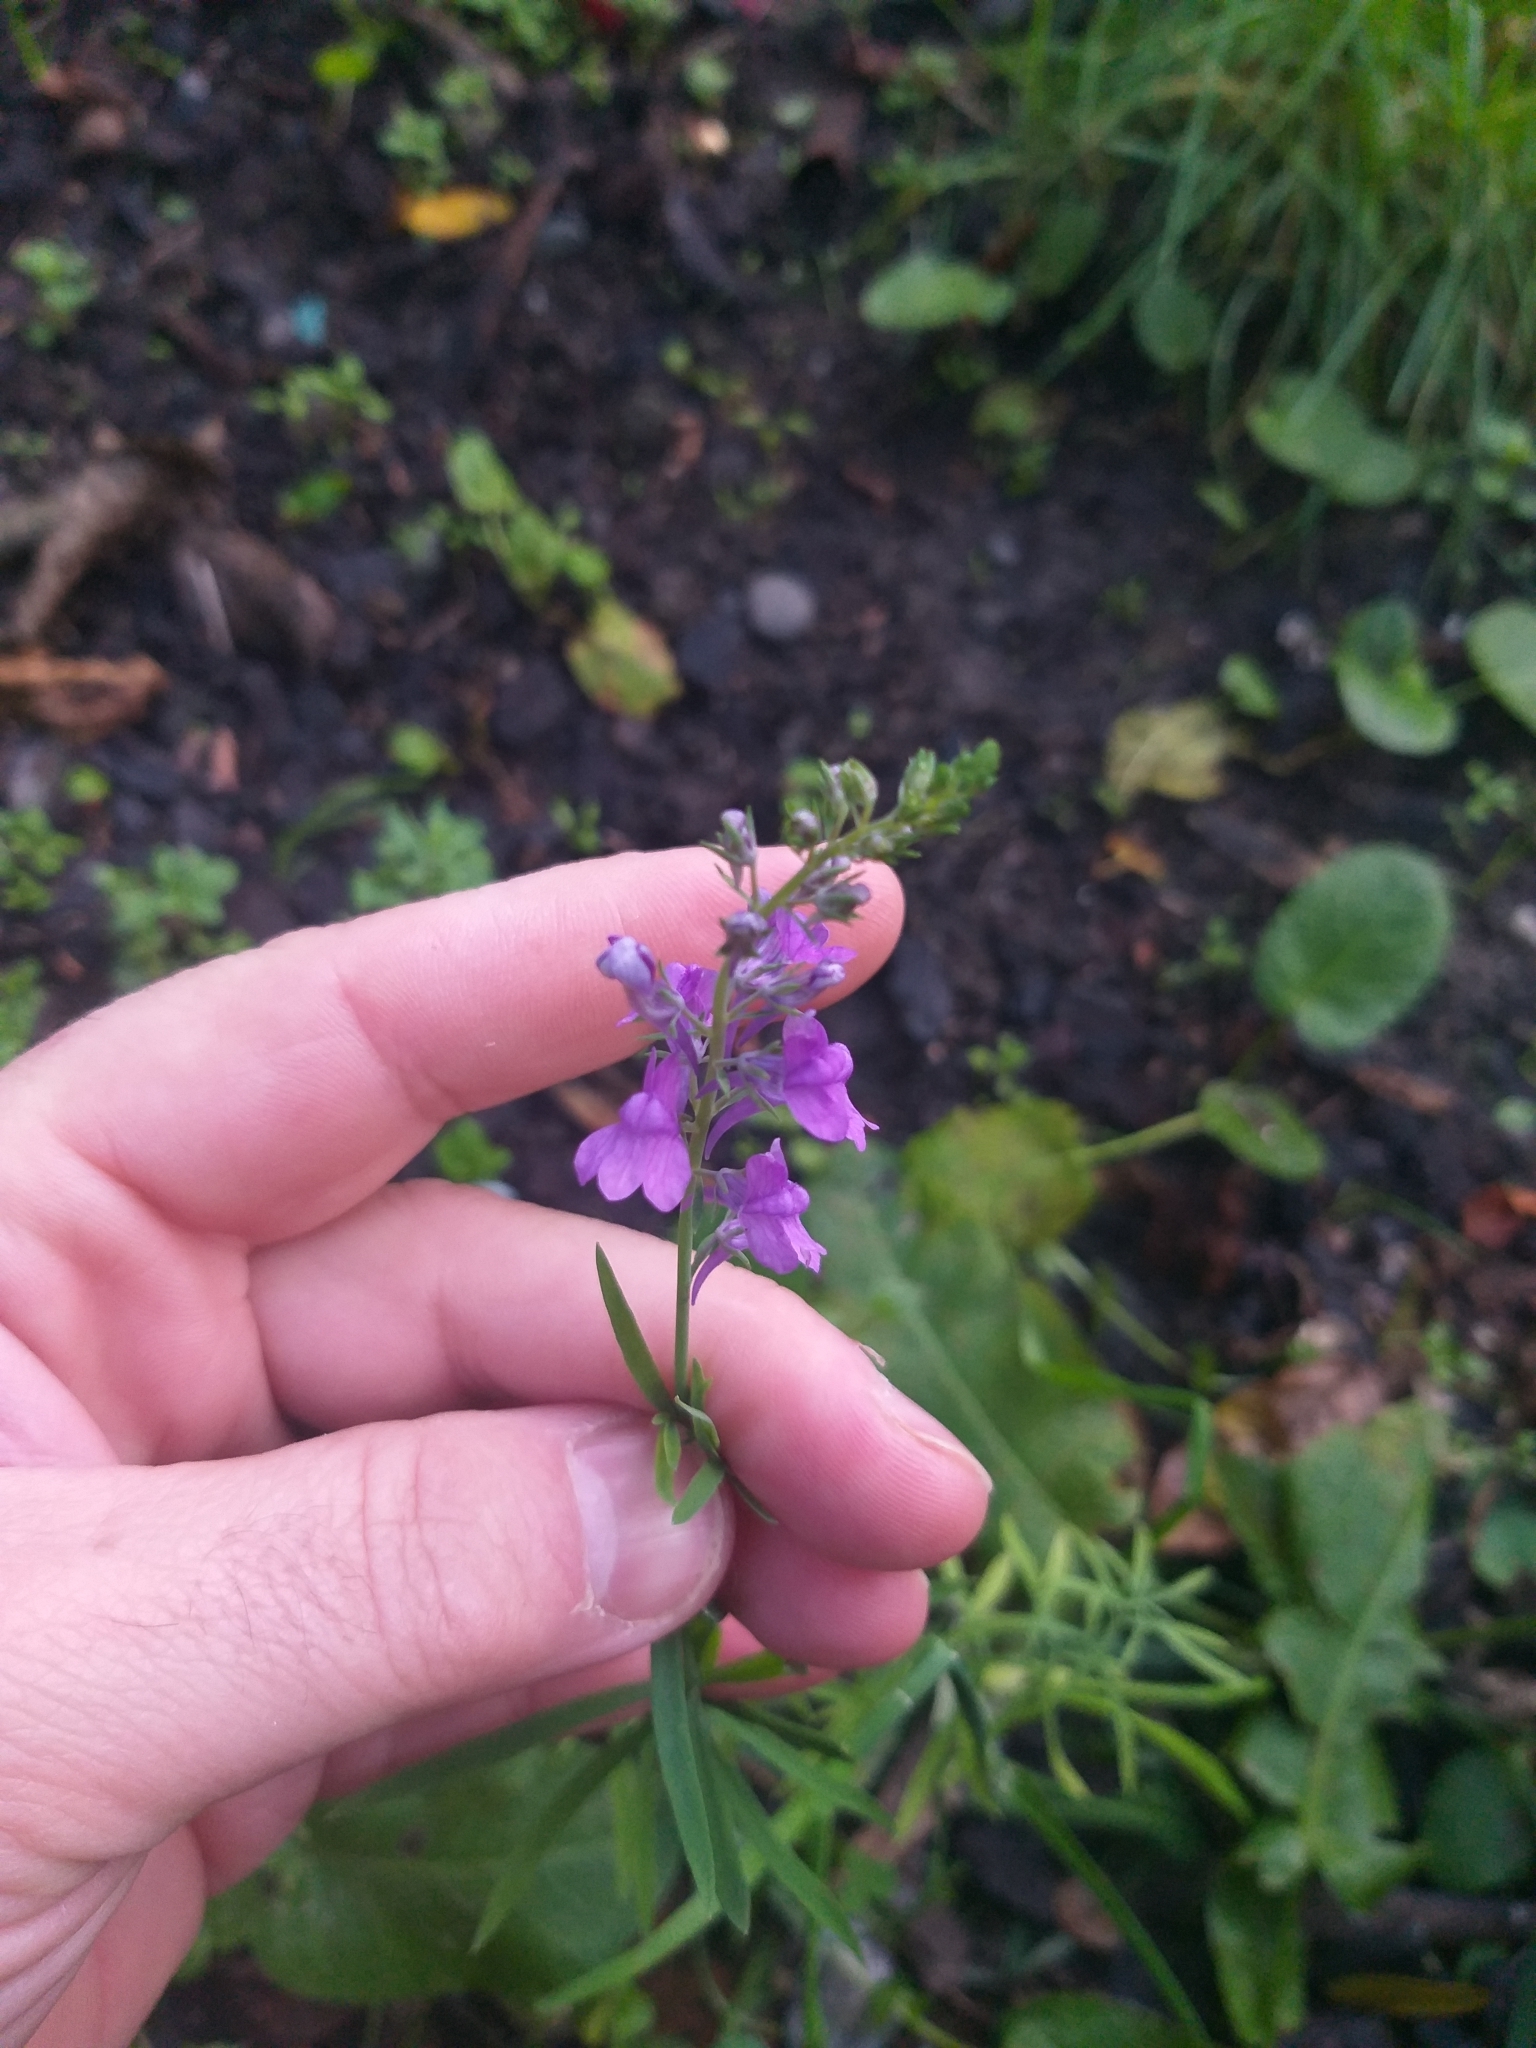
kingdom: Plantae
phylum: Tracheophyta
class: Magnoliopsida
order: Lamiales
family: Plantaginaceae
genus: Linaria
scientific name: Linaria purpurea
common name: Purple toadflax
